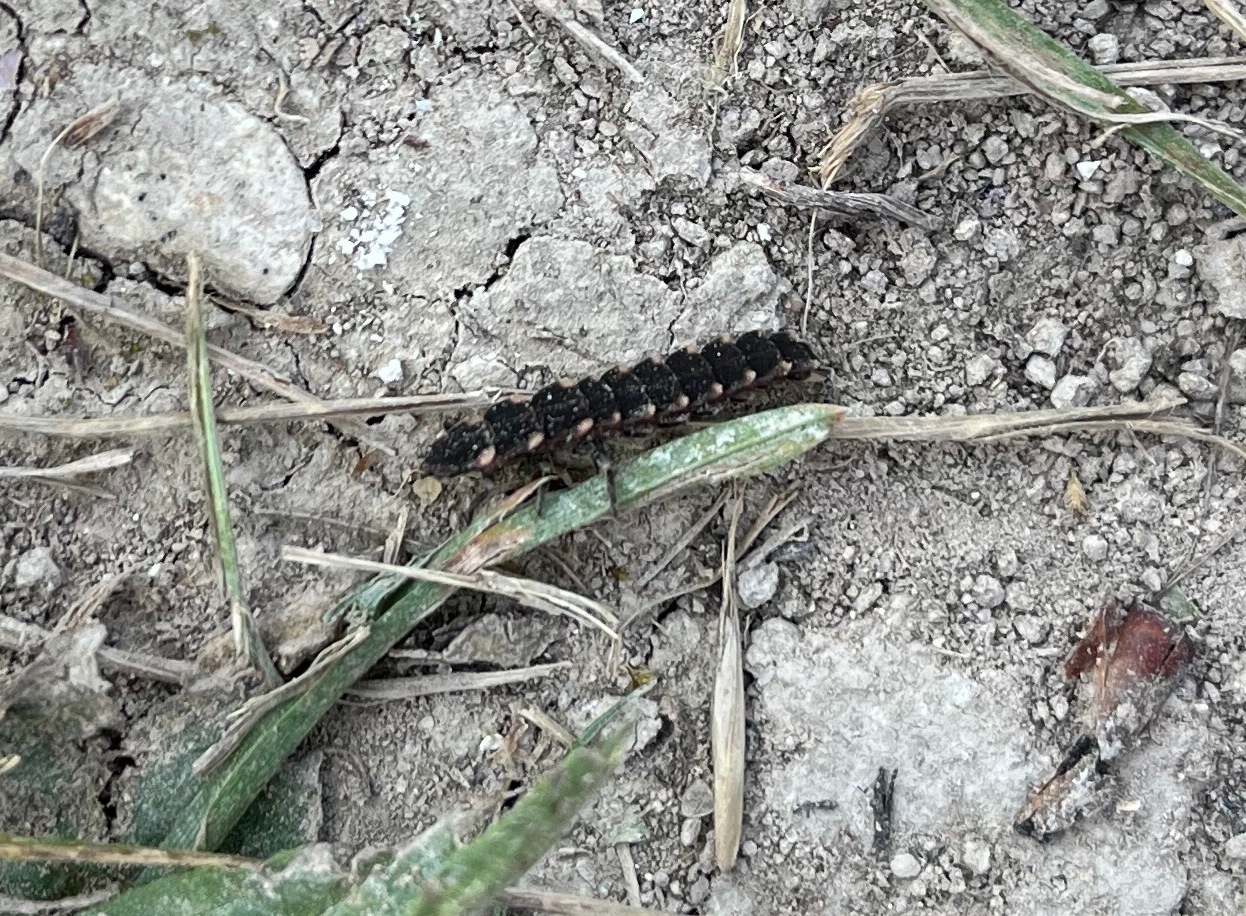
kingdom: Animalia
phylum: Arthropoda
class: Insecta
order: Coleoptera
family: Lampyridae
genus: Lampyris
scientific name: Lampyris noctiluca
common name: Glow-worm
